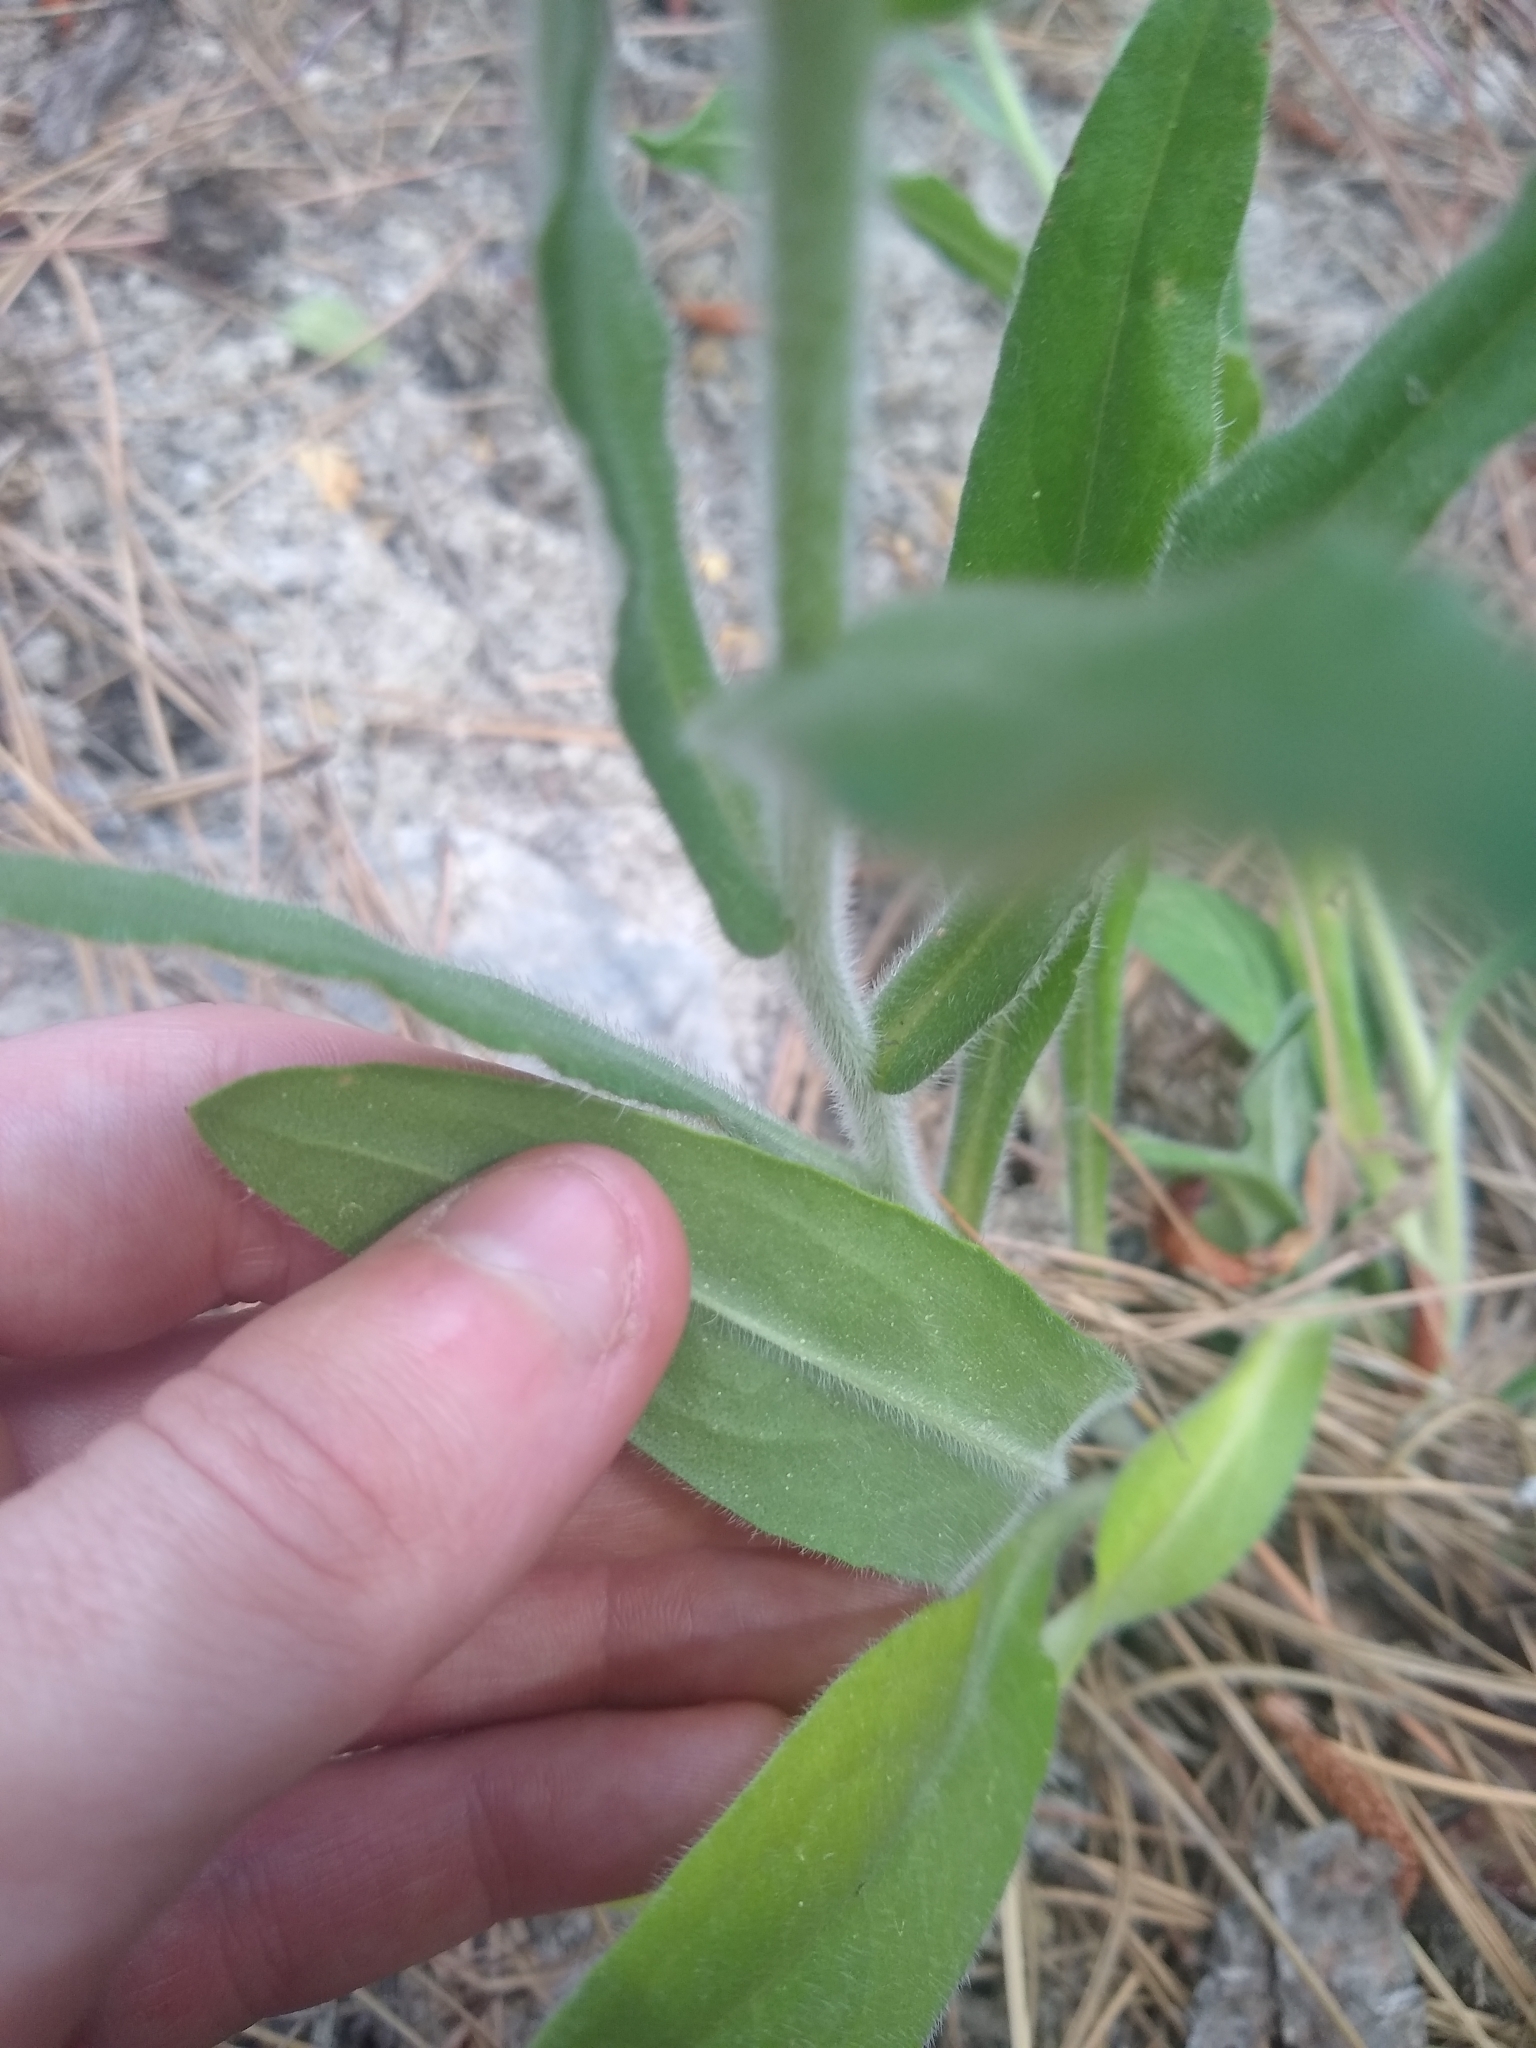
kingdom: Plantae
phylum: Tracheophyta
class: Magnoliopsida
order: Boraginales
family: Boraginaceae
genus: Anchusa
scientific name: Anchusa officinalis
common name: Alkanet
